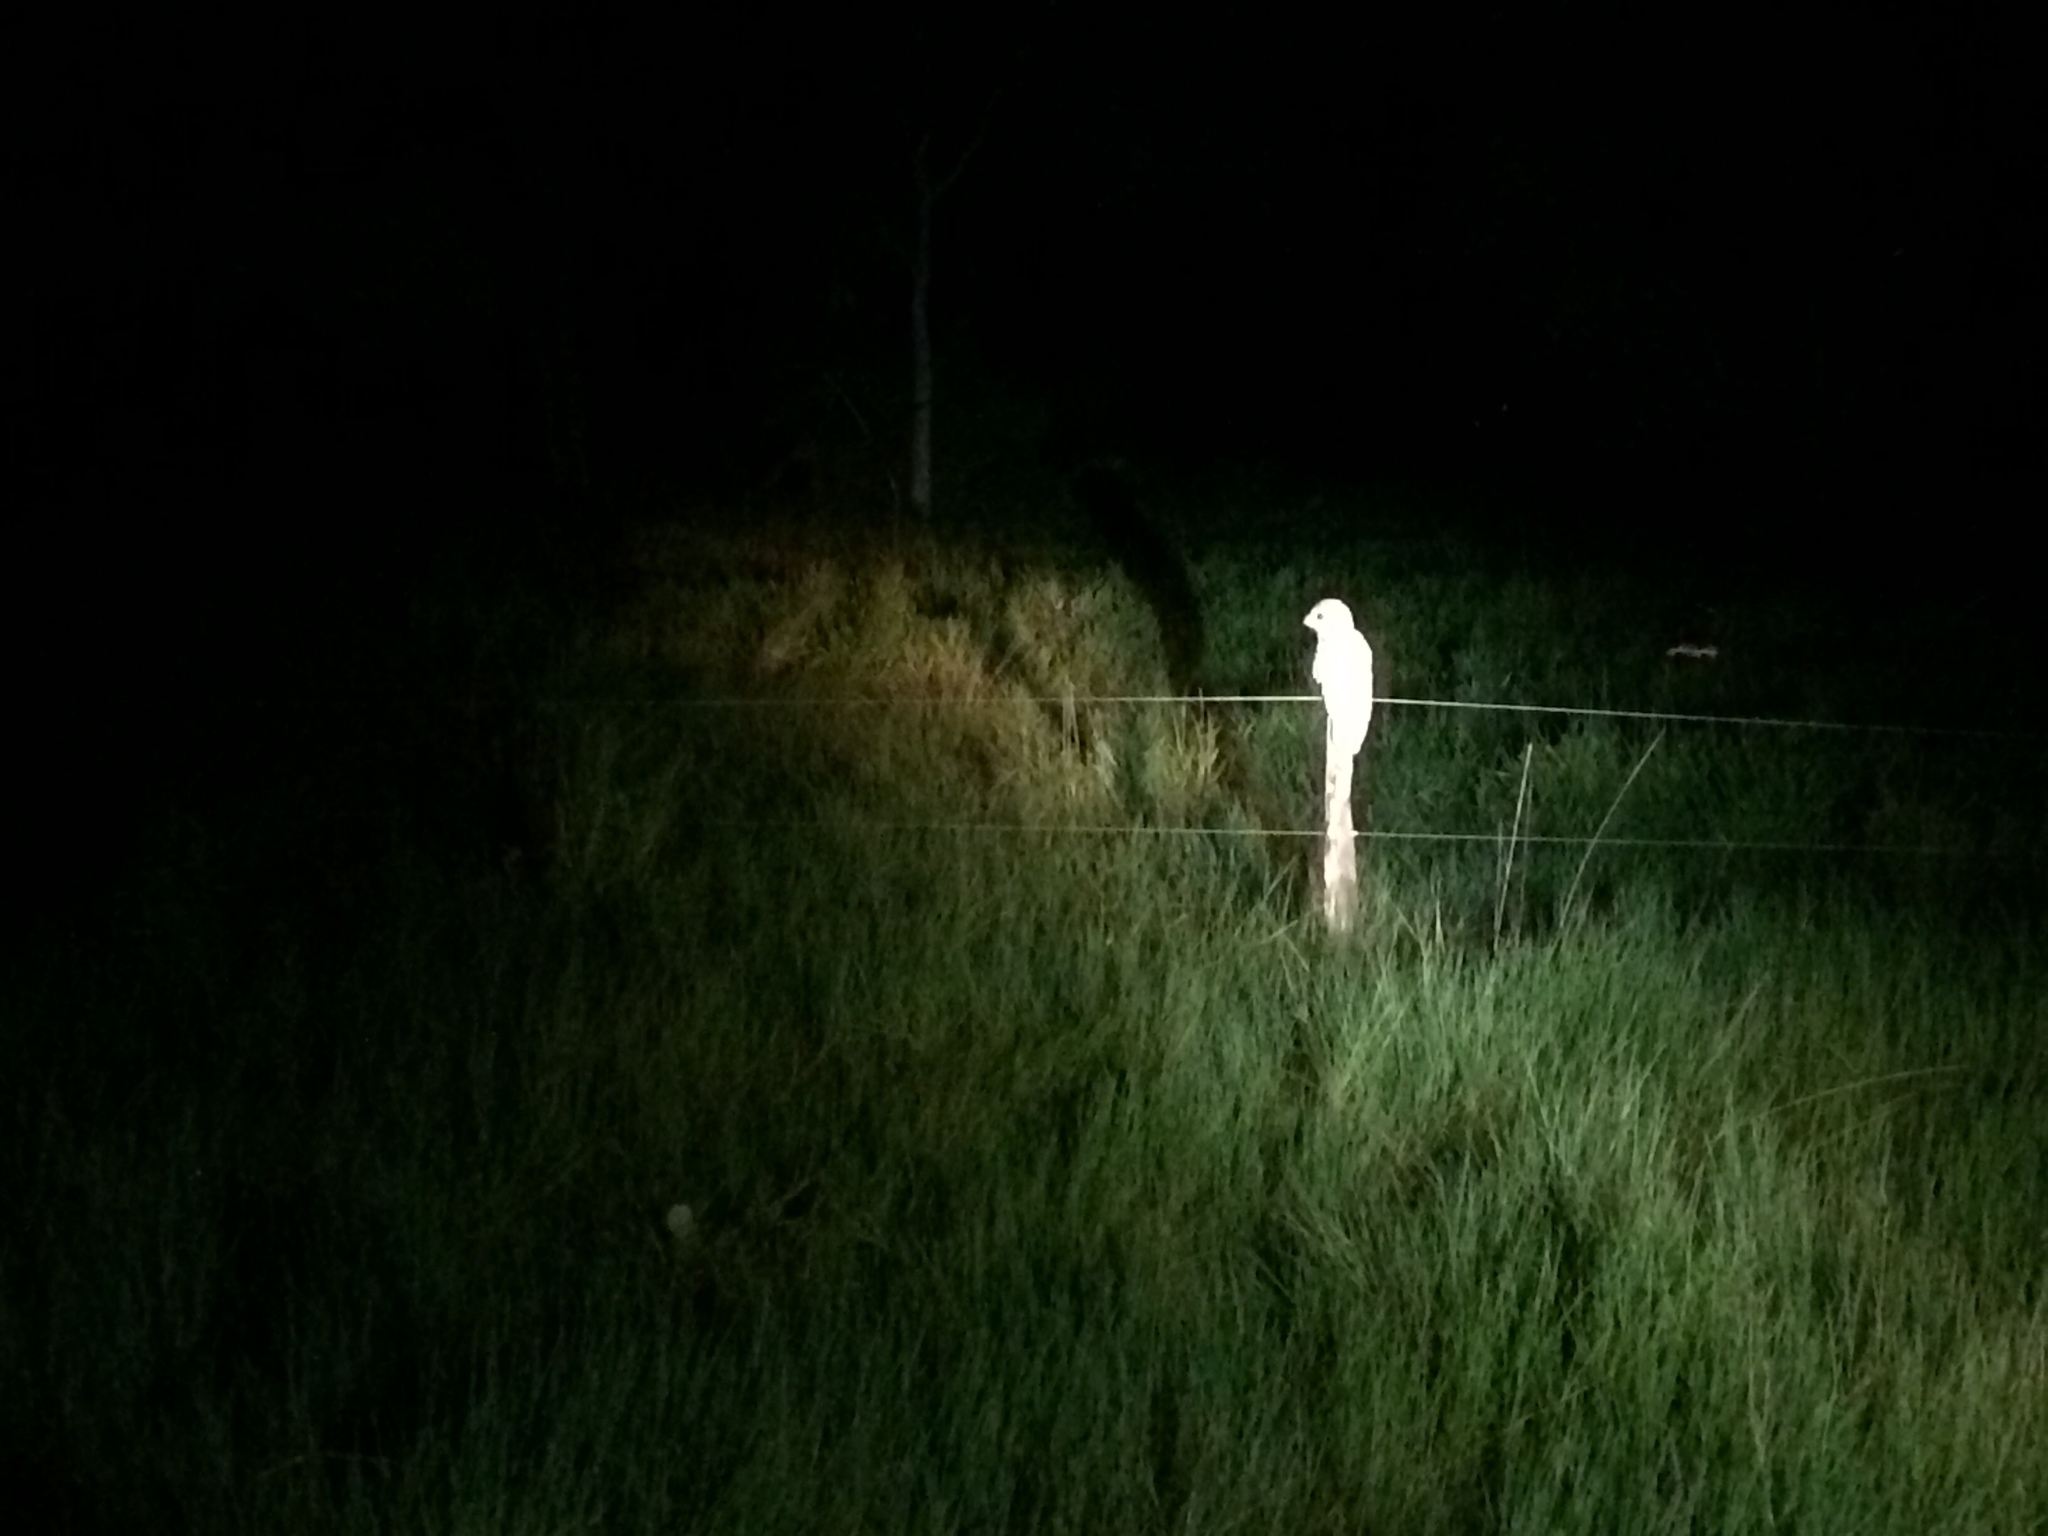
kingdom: Animalia
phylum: Chordata
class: Aves
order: Nyctibiiformes
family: Nyctibiidae
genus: Nyctibius
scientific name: Nyctibius grandis
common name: Great potoo
